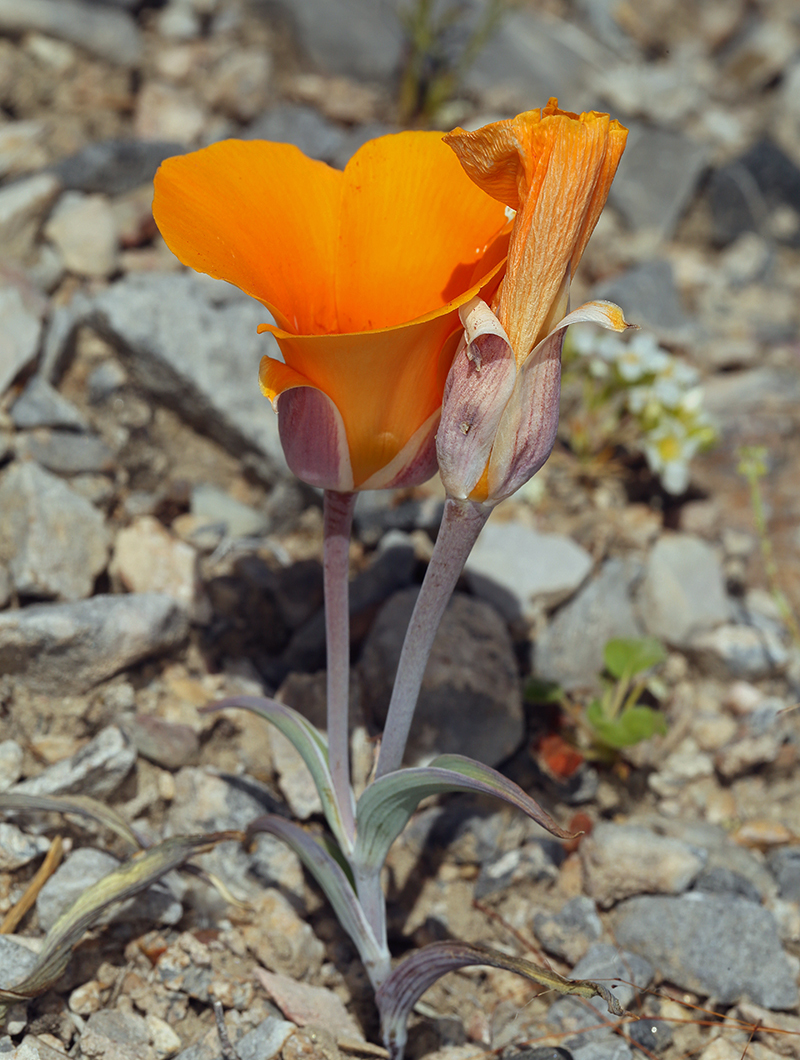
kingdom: Plantae
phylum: Tracheophyta
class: Liliopsida
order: Liliales
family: Liliaceae
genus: Calochortus
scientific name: Calochortus kennedyi
